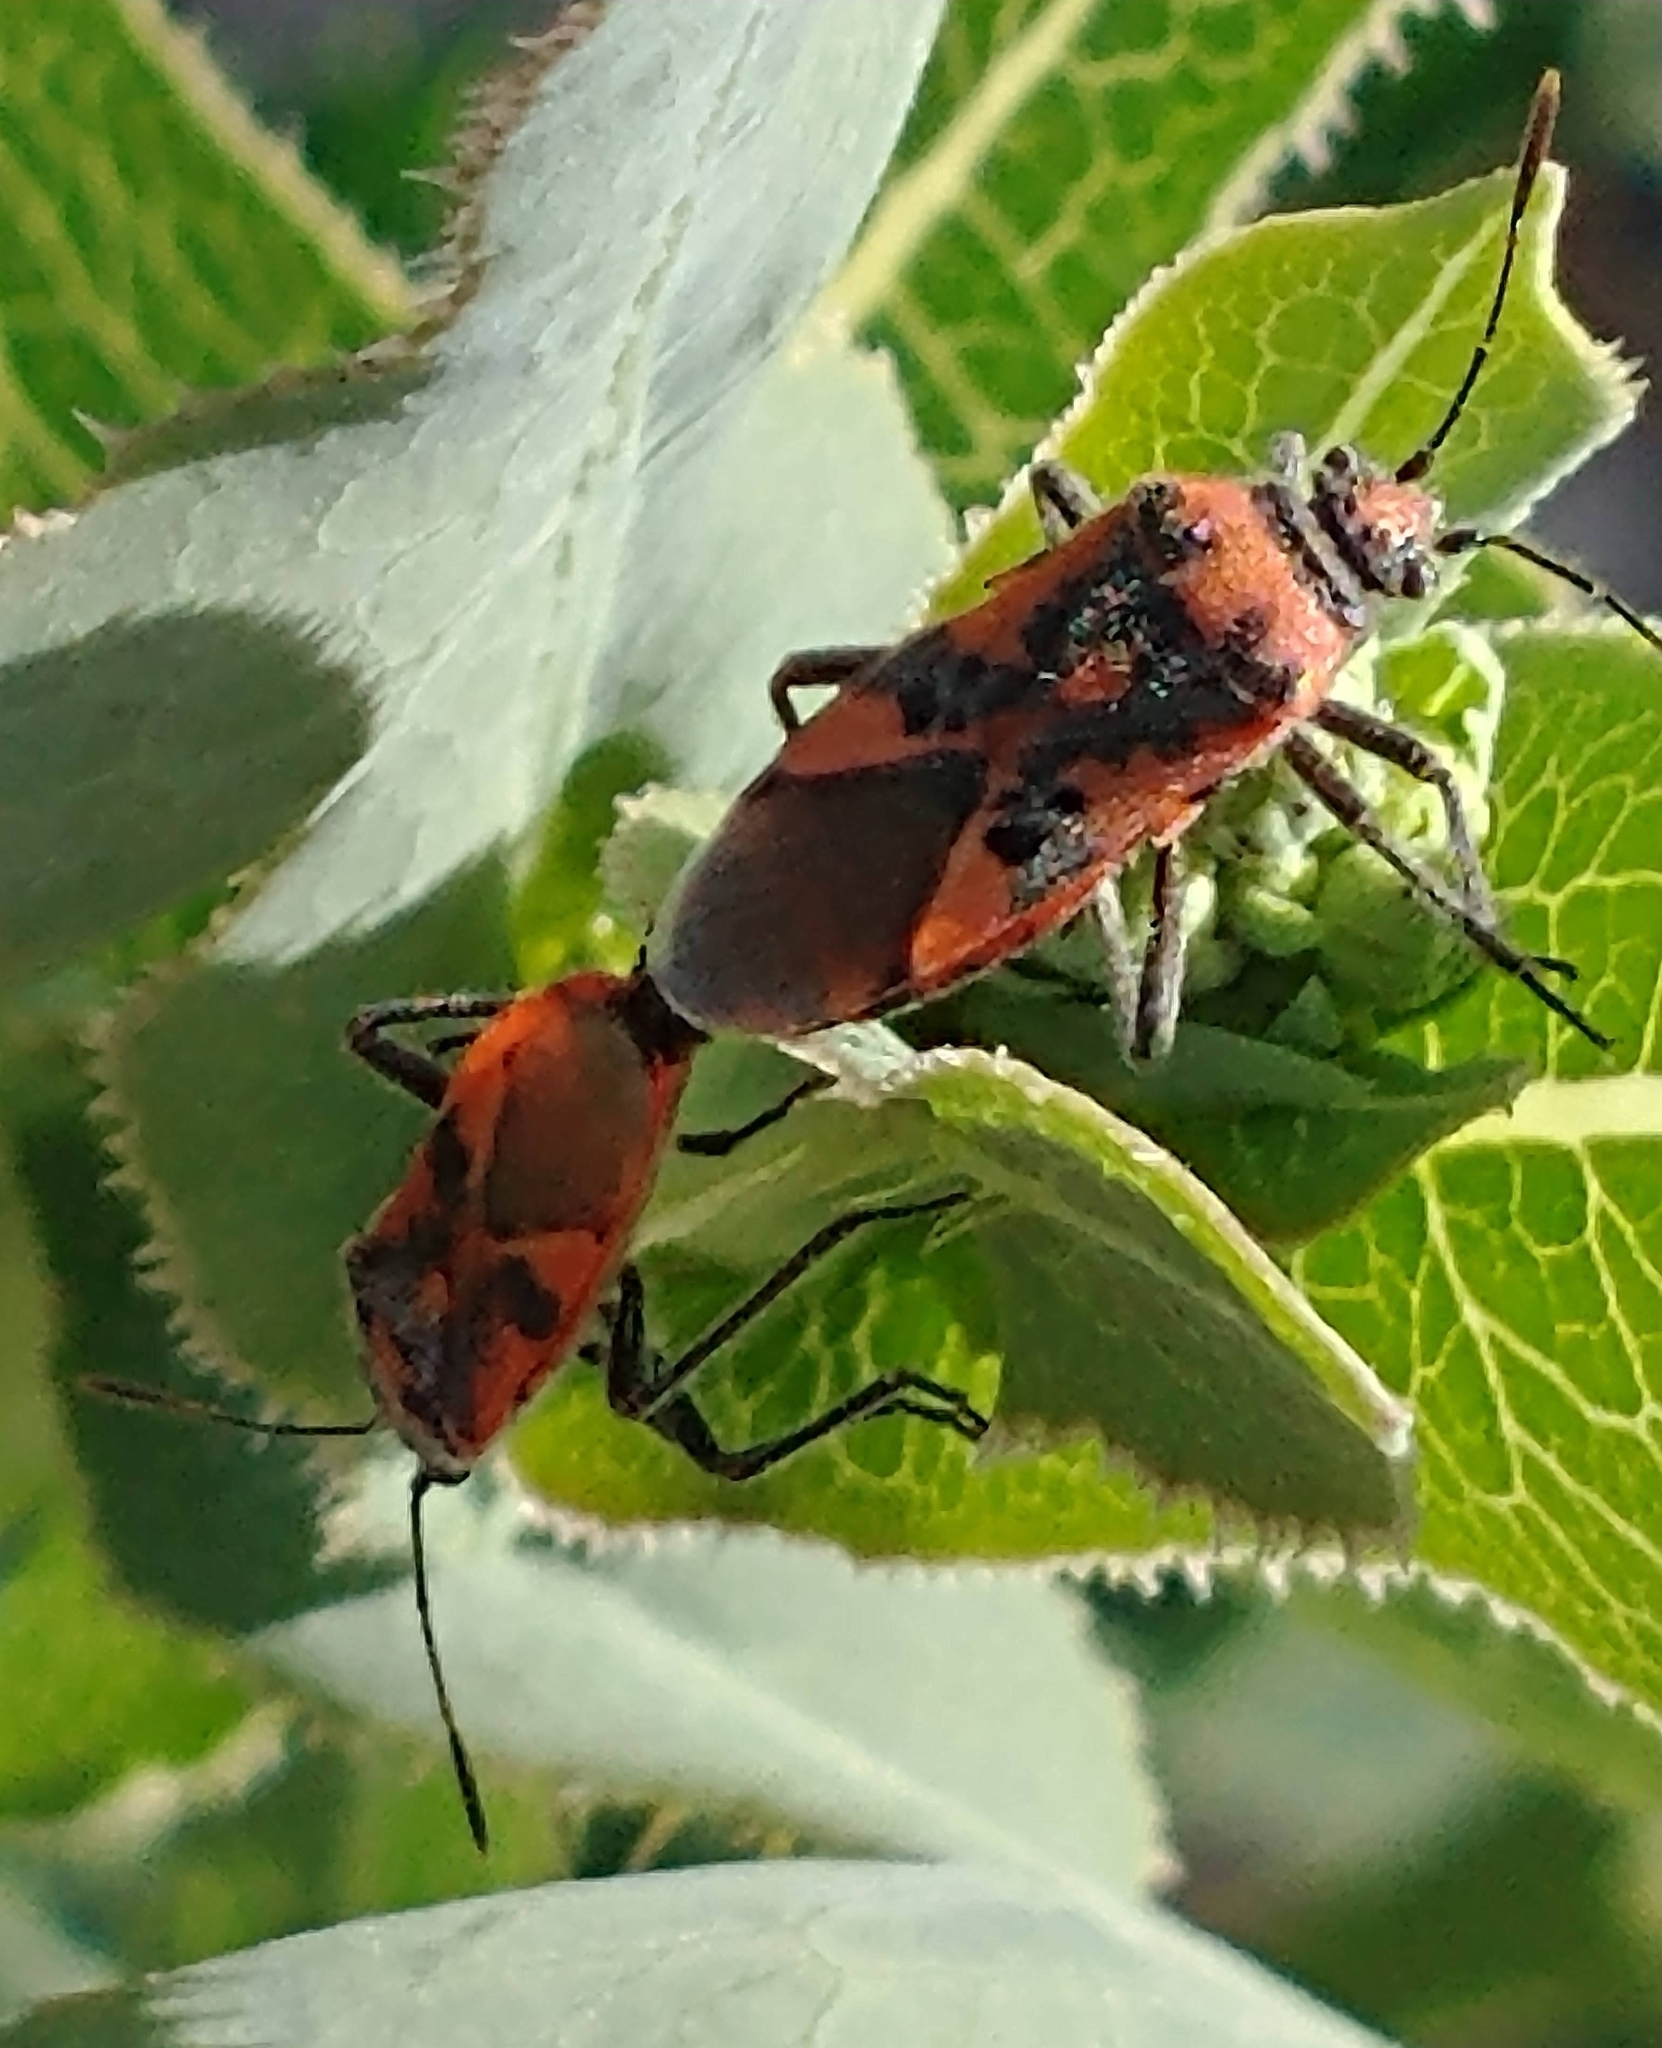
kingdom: Animalia
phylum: Arthropoda
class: Insecta
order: Hemiptera
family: Rhopalidae
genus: Corizus
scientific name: Corizus hyoscyami
